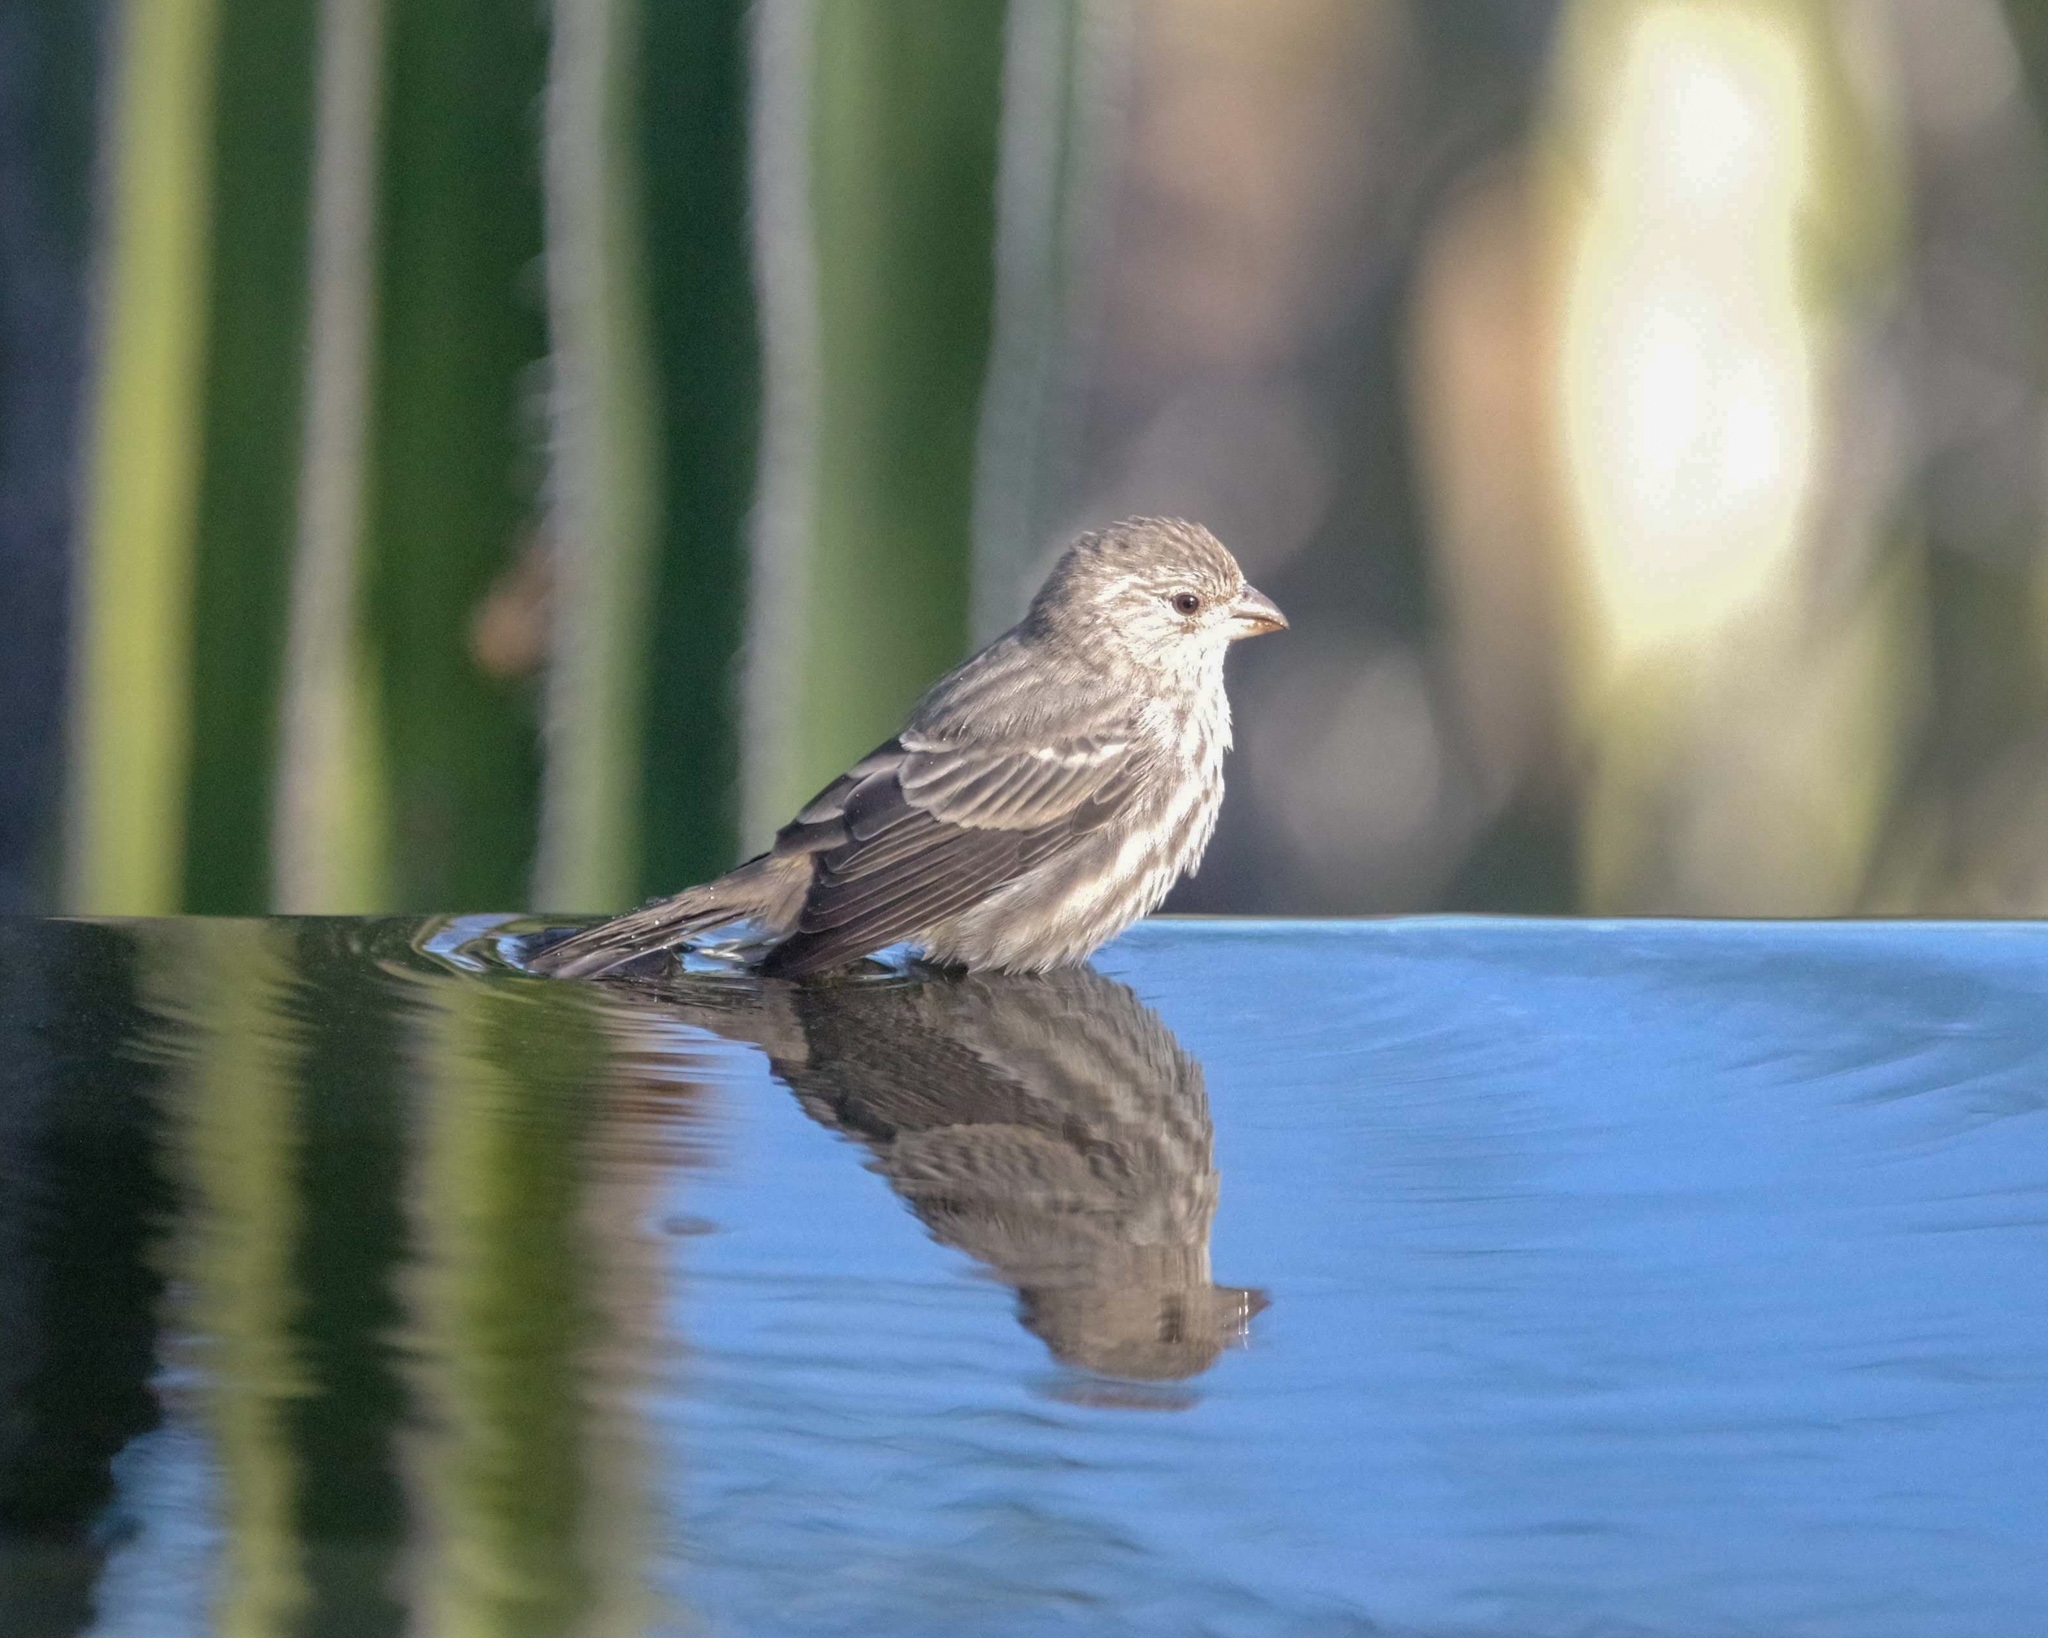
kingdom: Animalia
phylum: Chordata
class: Aves
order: Passeriformes
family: Fringillidae
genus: Haemorhous
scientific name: Haemorhous mexicanus
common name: House finch
